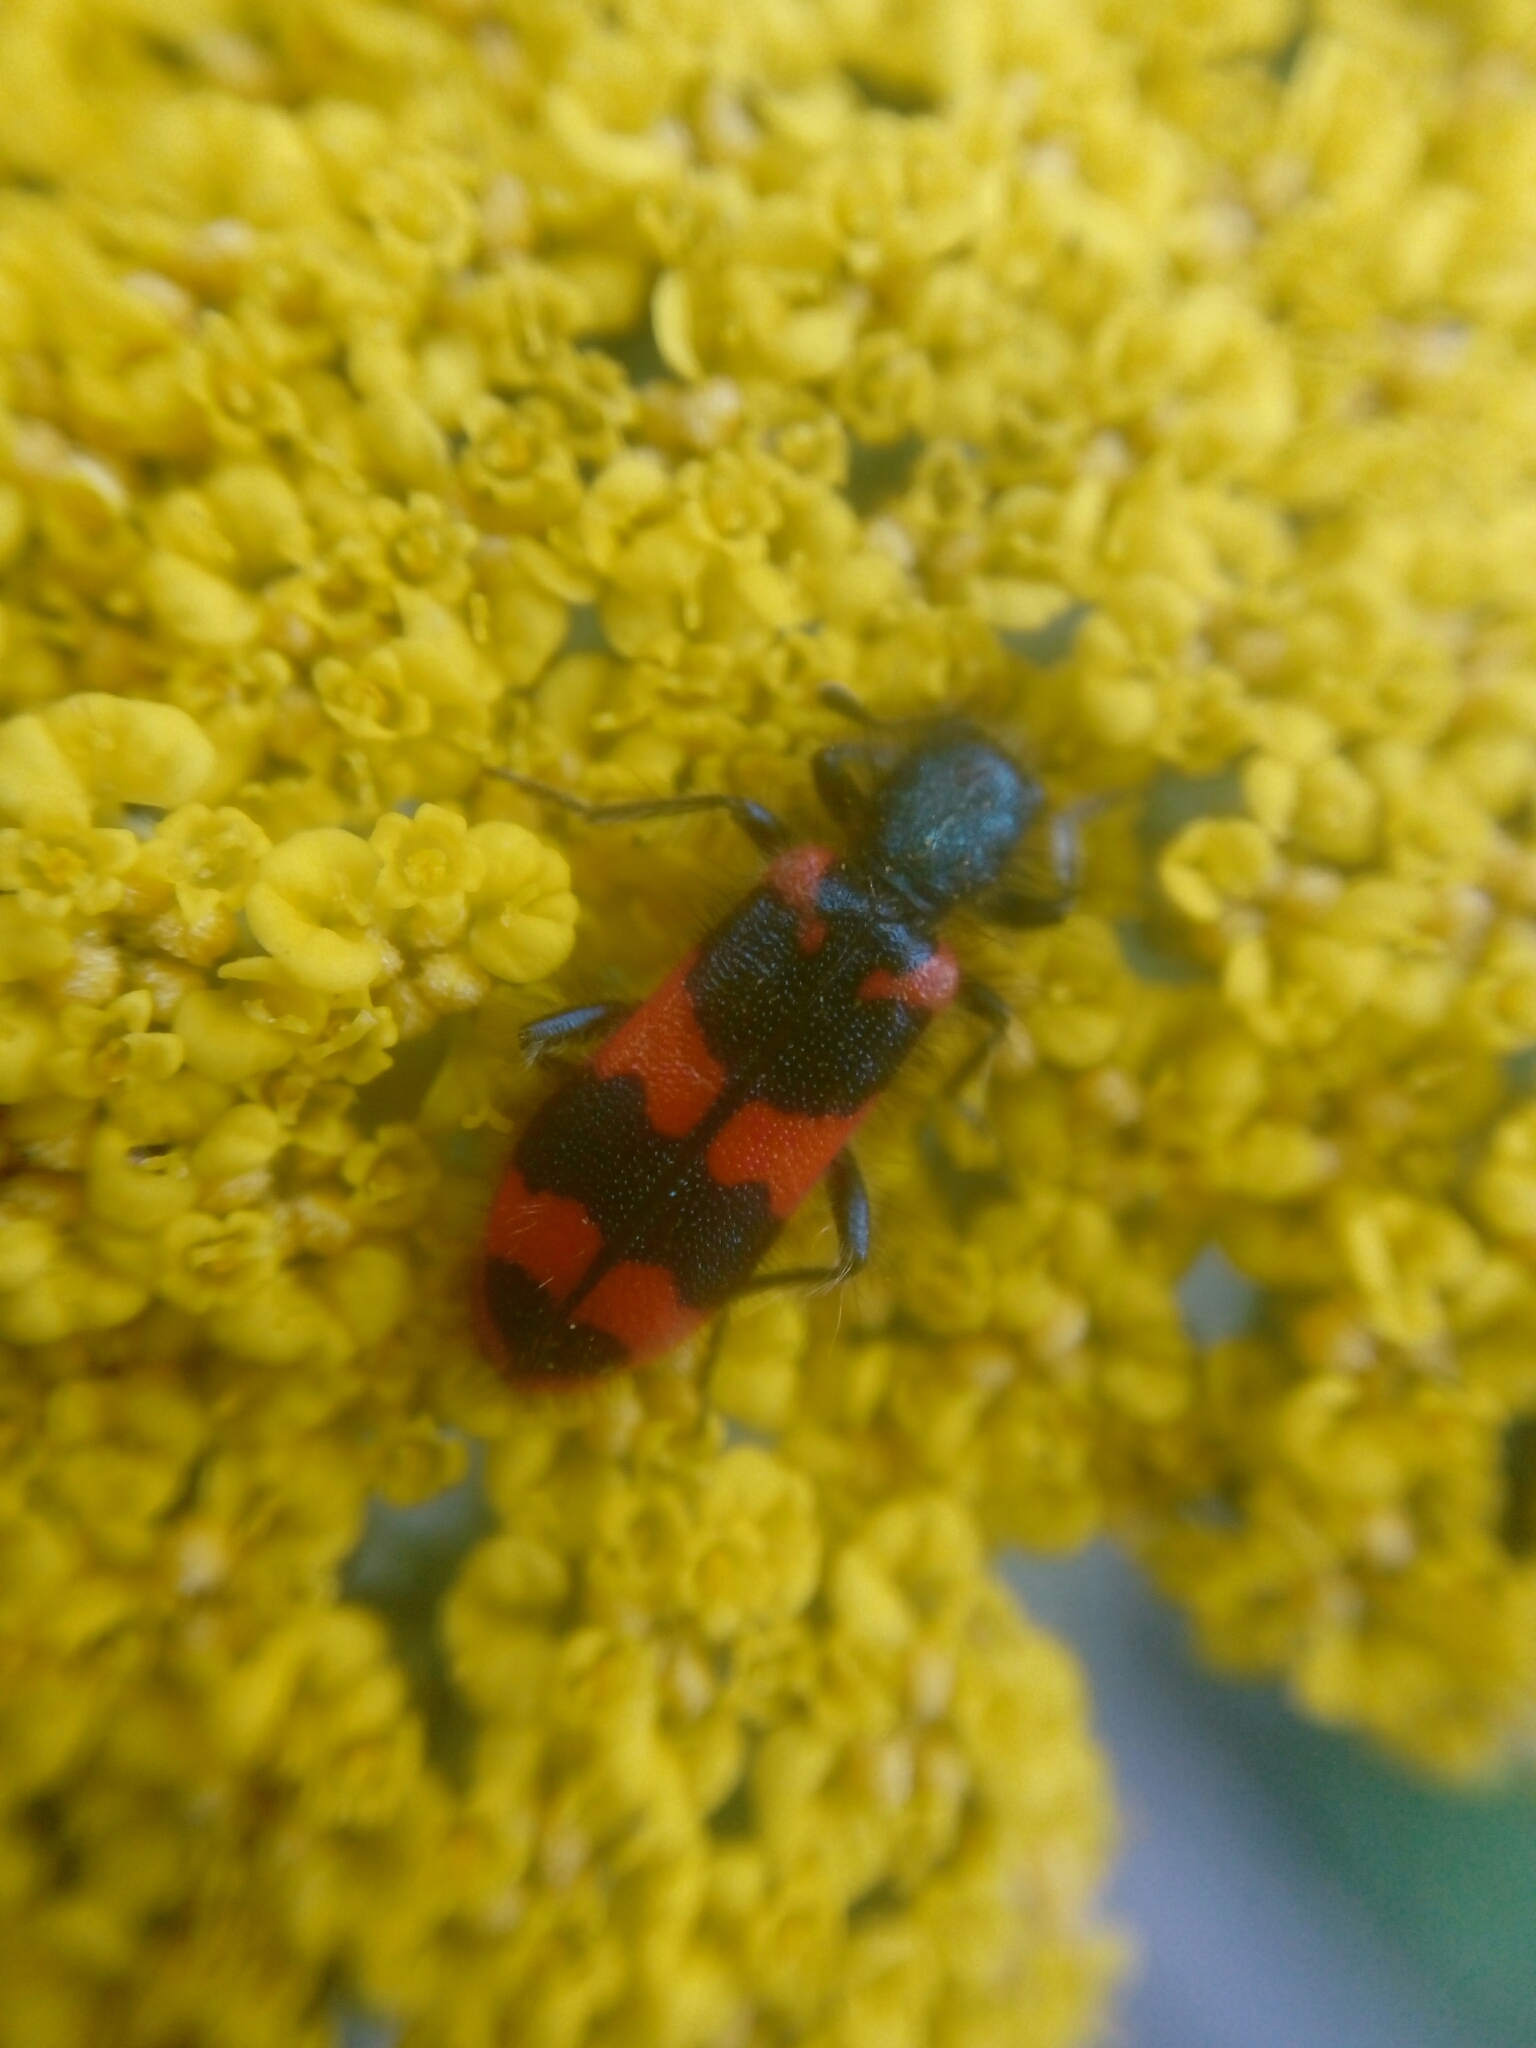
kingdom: Animalia
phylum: Arthropoda
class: Insecta
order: Coleoptera
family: Cleridae
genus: Trichodes
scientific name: Trichodes alvearius
